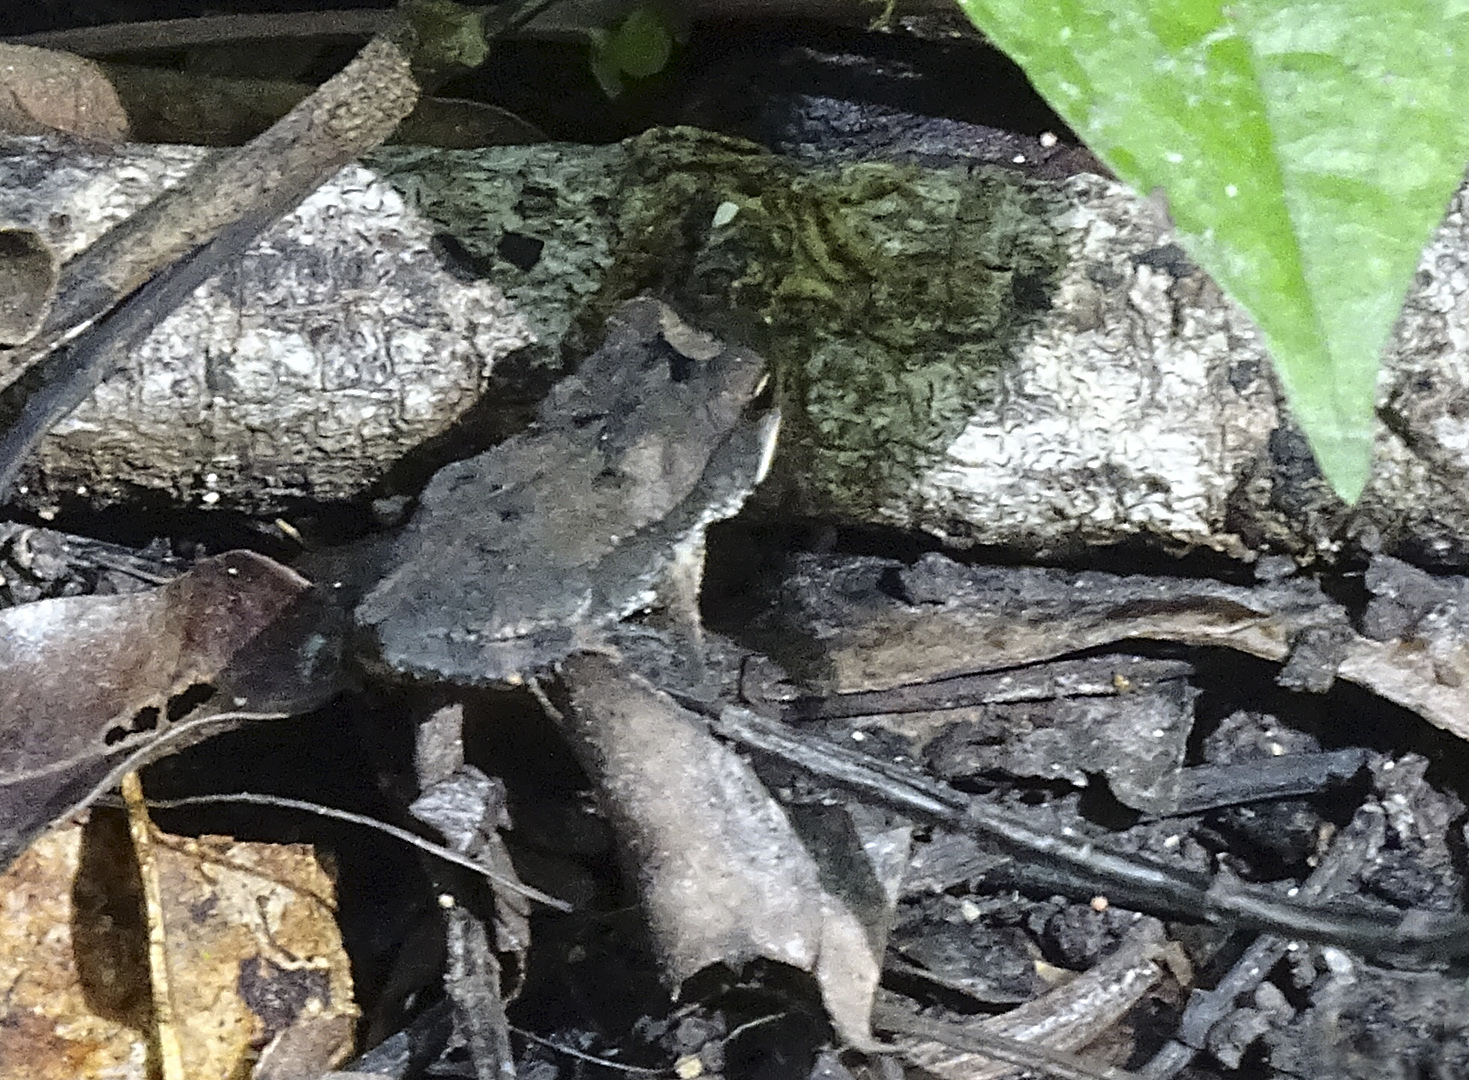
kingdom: Animalia
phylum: Chordata
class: Amphibia
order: Anura
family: Bufonidae
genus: Incilius
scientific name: Incilius valliceps
